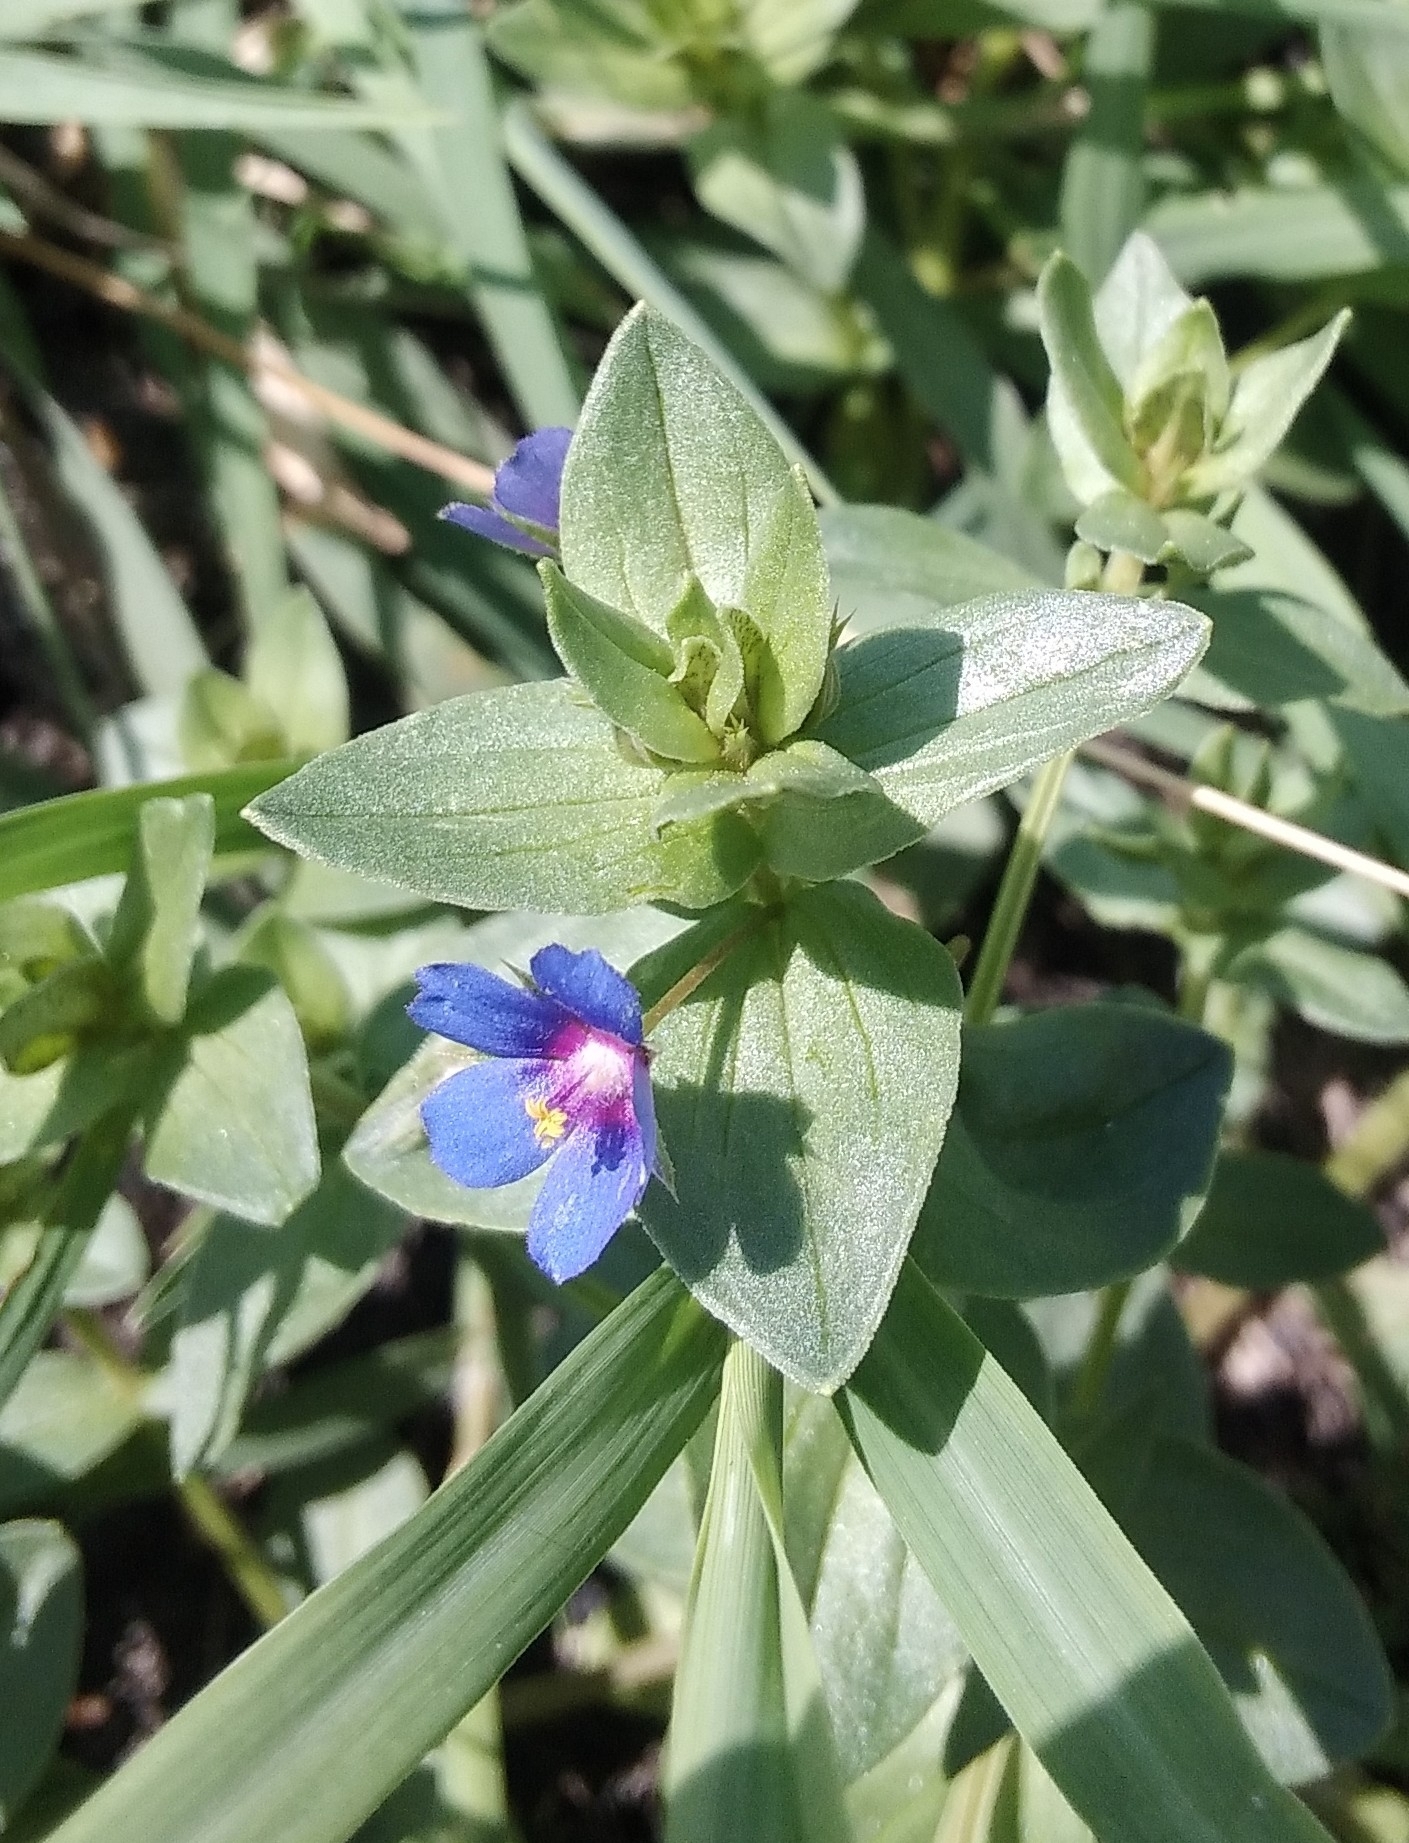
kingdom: Plantae
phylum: Tracheophyta
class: Magnoliopsida
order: Ericales
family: Primulaceae
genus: Lysimachia
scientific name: Lysimachia foemina
